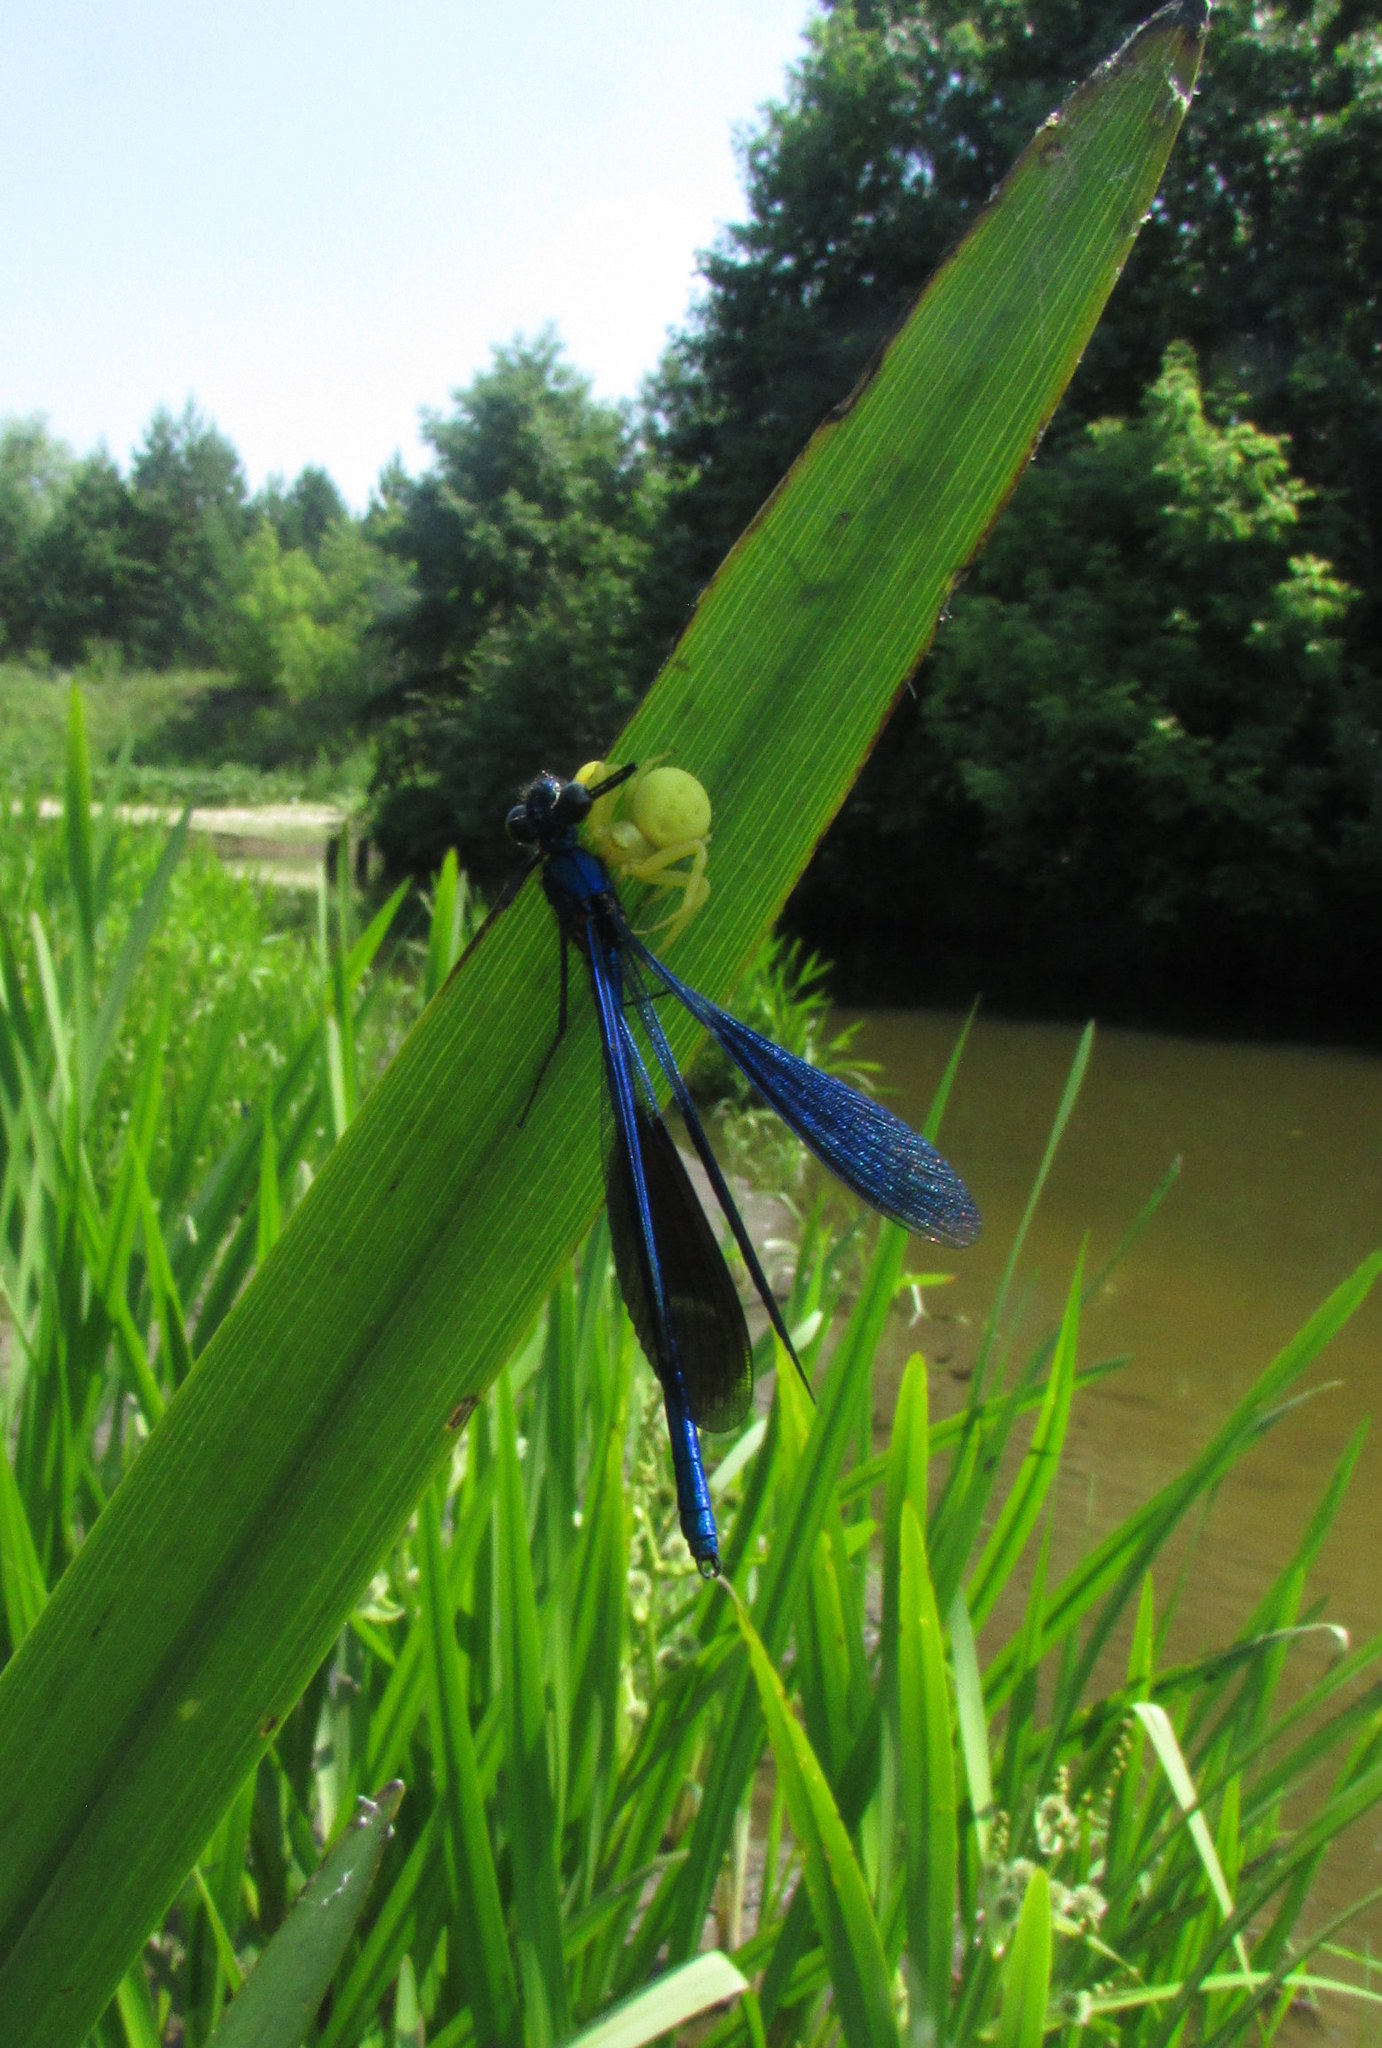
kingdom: Animalia
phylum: Arthropoda
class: Insecta
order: Odonata
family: Calopterygidae
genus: Calopteryx
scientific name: Calopteryx splendens
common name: Banded demoiselle
